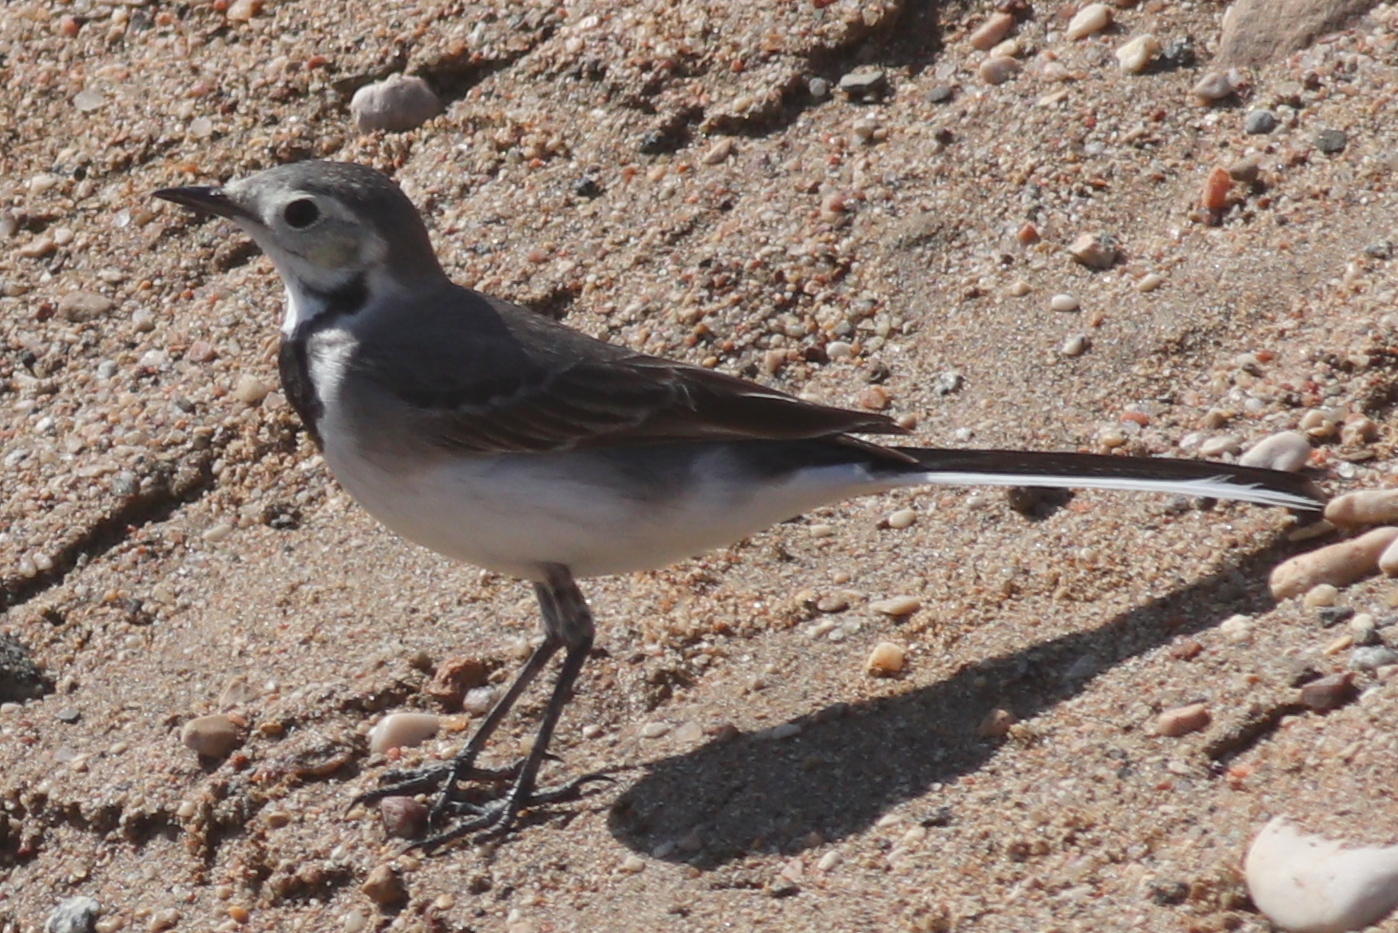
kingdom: Animalia
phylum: Chordata
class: Aves
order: Passeriformes
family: Motacillidae
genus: Motacilla
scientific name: Motacilla alba
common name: White wagtail
